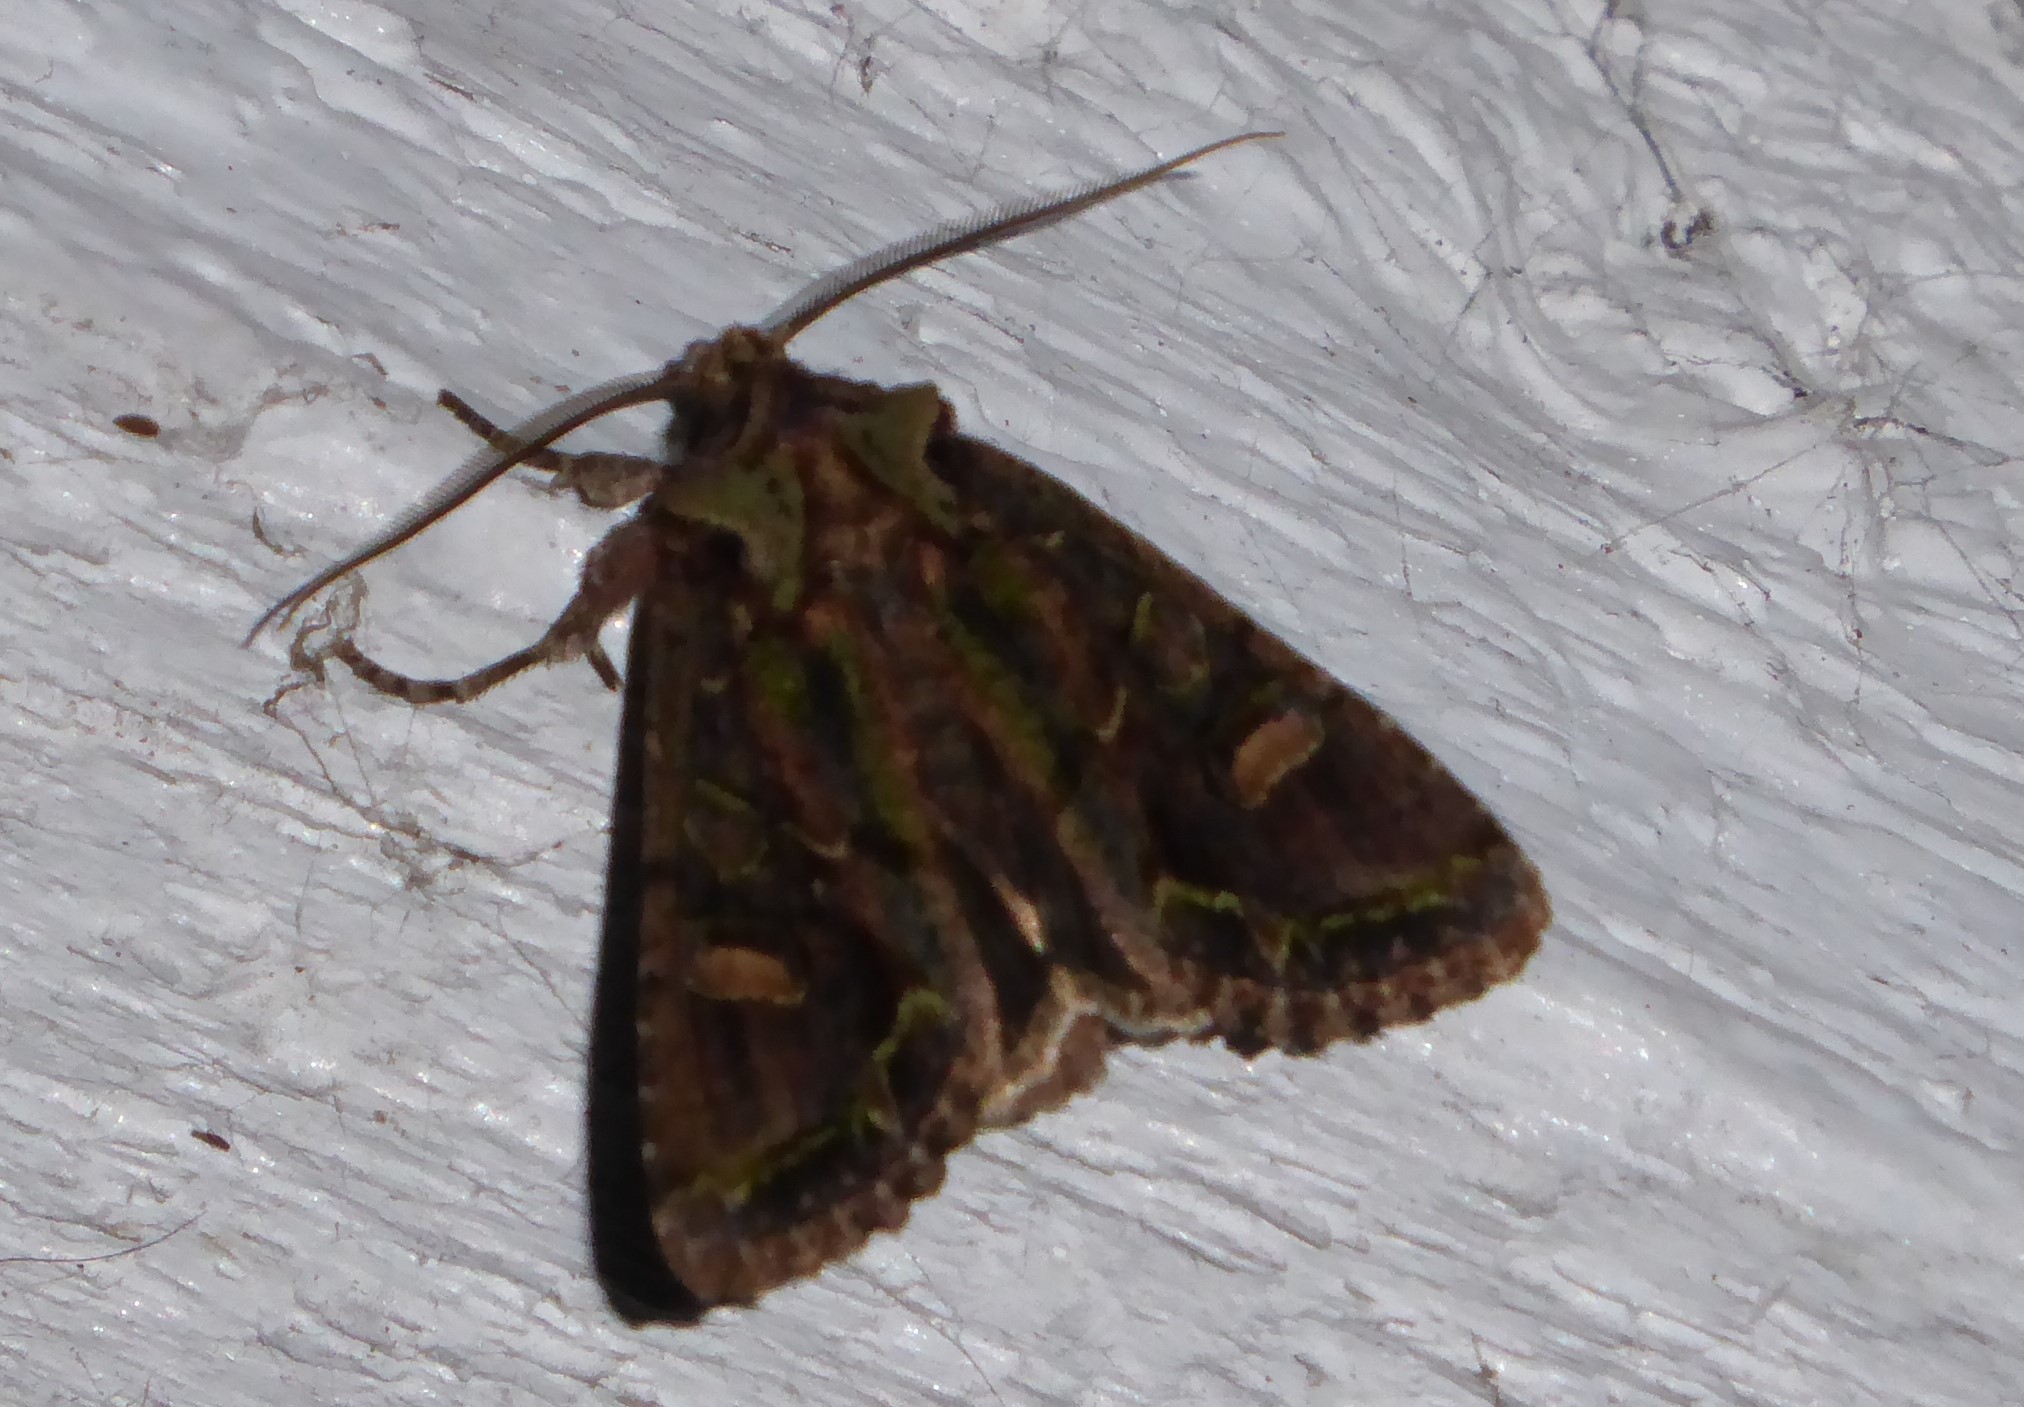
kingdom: Animalia
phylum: Arthropoda
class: Insecta
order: Lepidoptera
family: Noctuidae
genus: Ichneutica
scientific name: Ichneutica insignis
